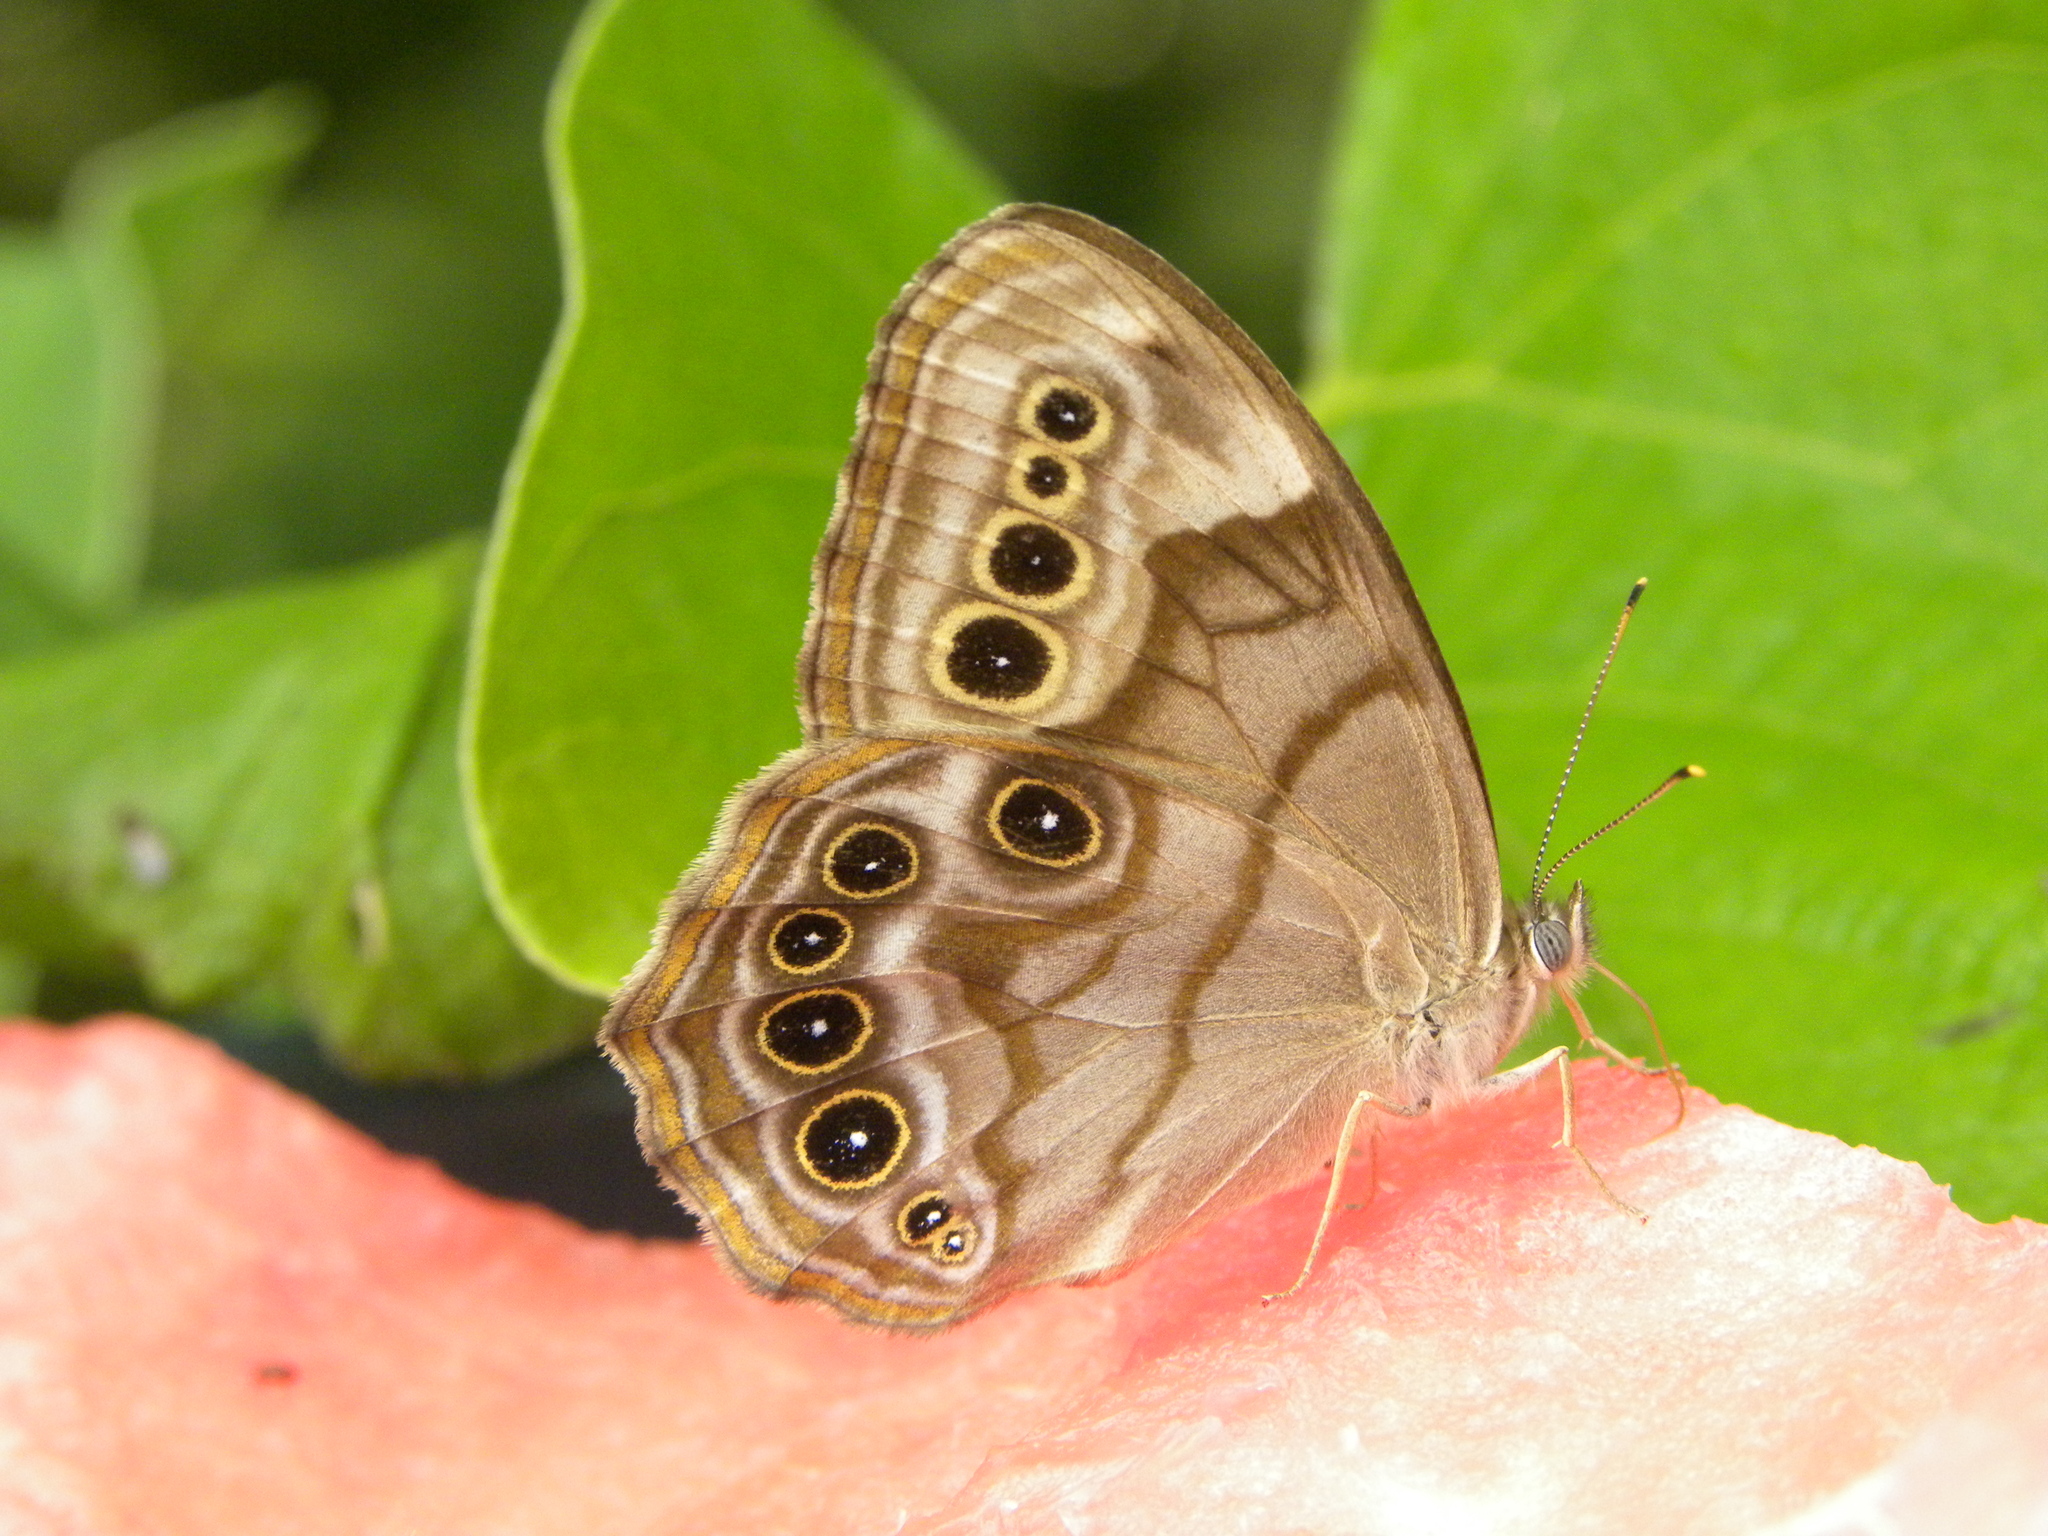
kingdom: Animalia
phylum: Arthropoda
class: Insecta
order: Lepidoptera
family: Nymphalidae
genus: Lethe
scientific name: Lethe anthedon
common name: Northern pearly-eye
